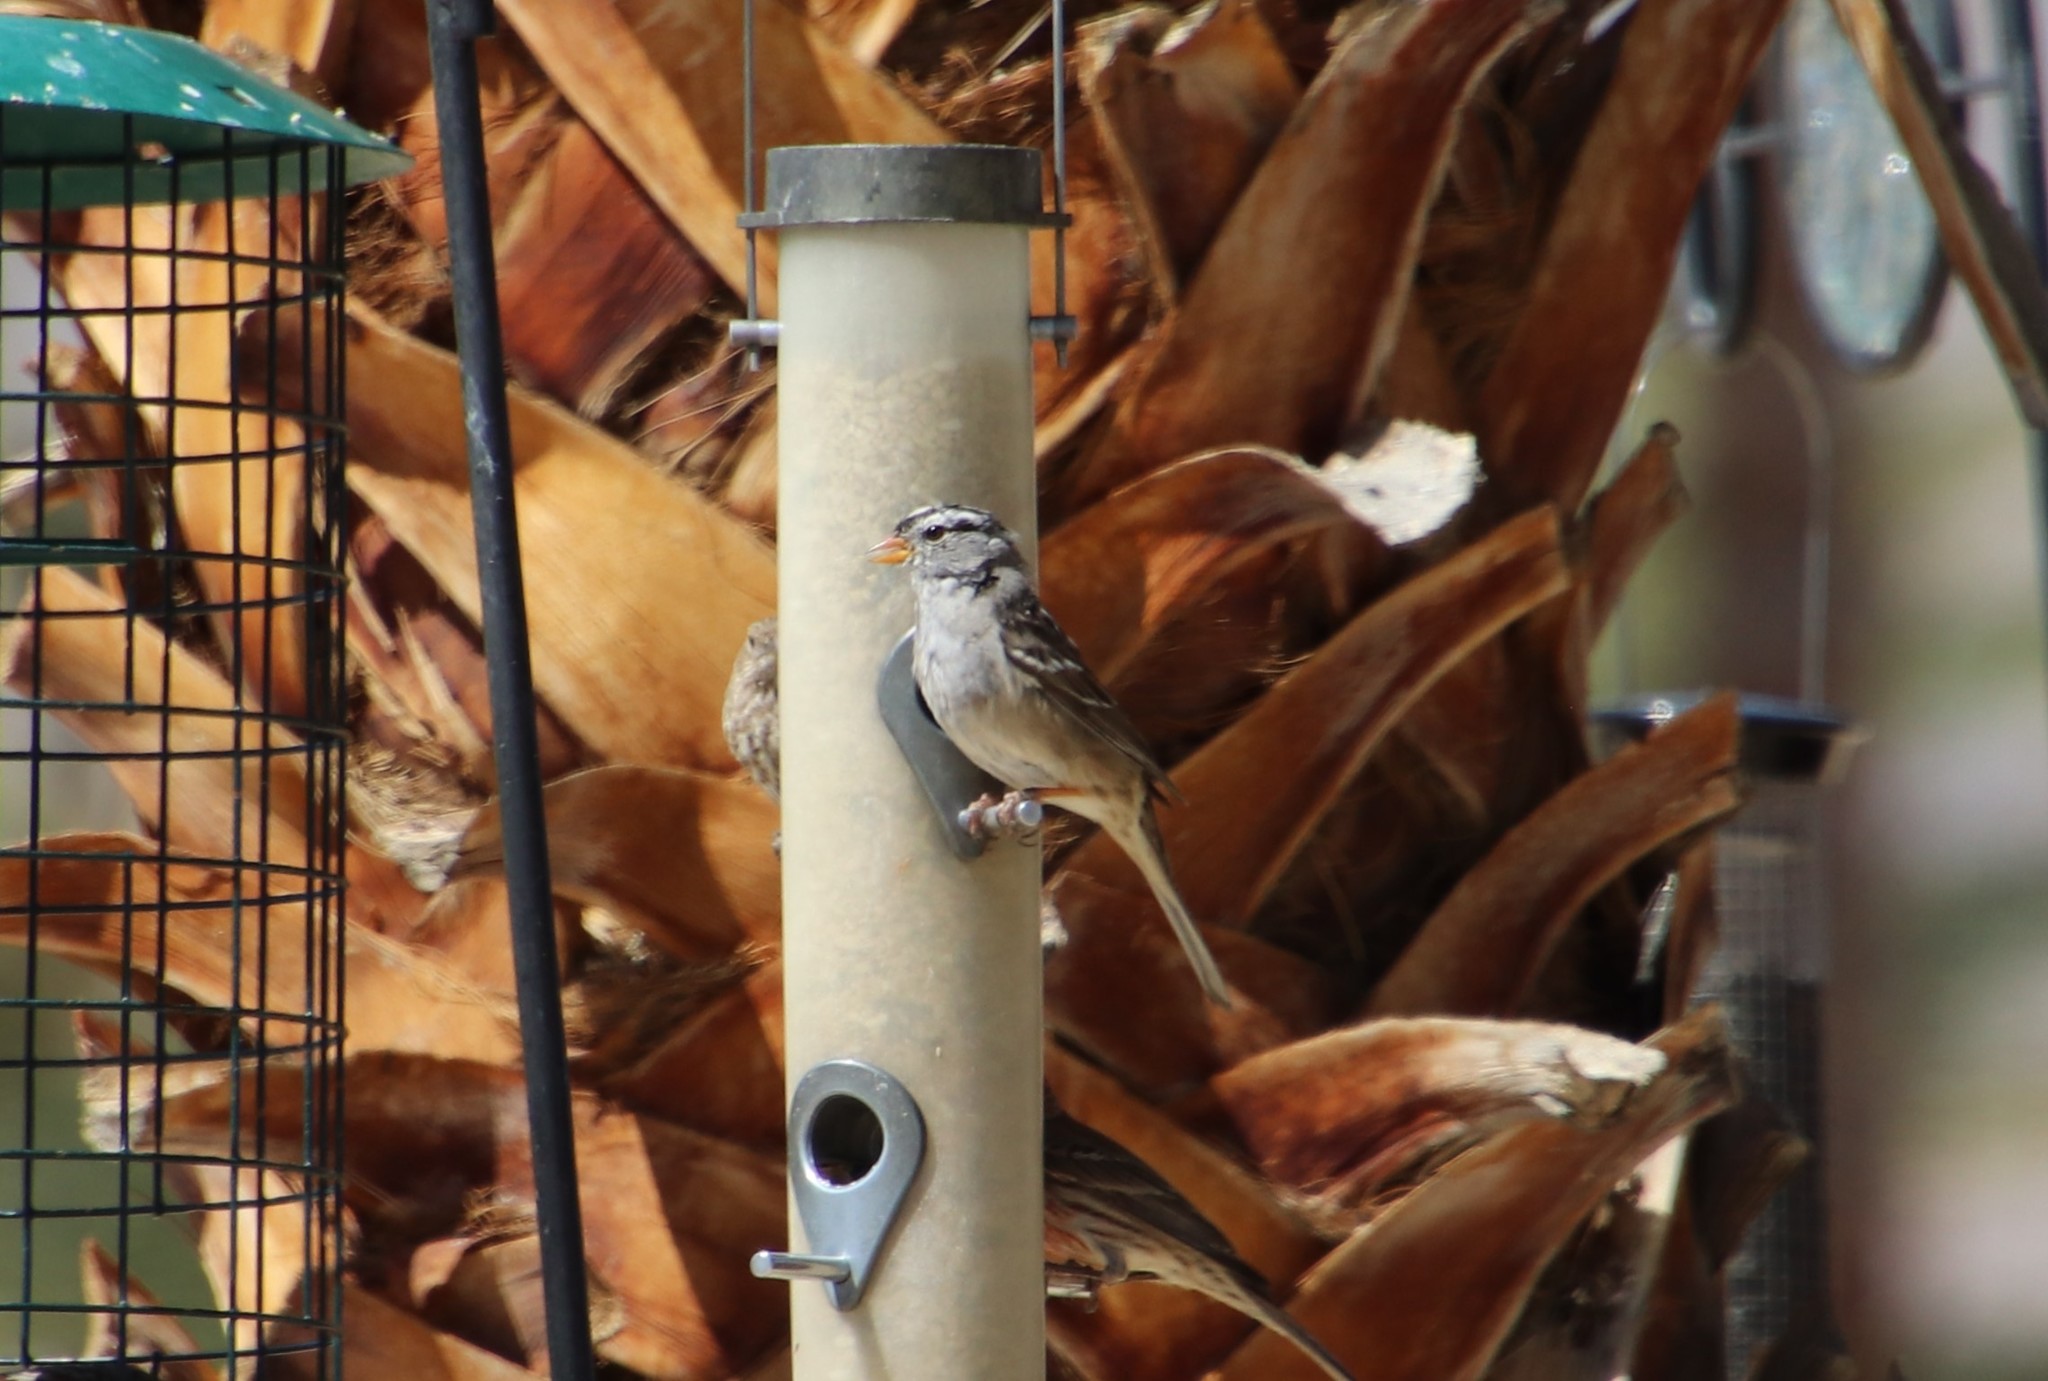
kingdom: Animalia
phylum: Chordata
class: Aves
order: Passeriformes
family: Passerellidae
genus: Zonotrichia
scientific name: Zonotrichia leucophrys
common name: White-crowned sparrow
